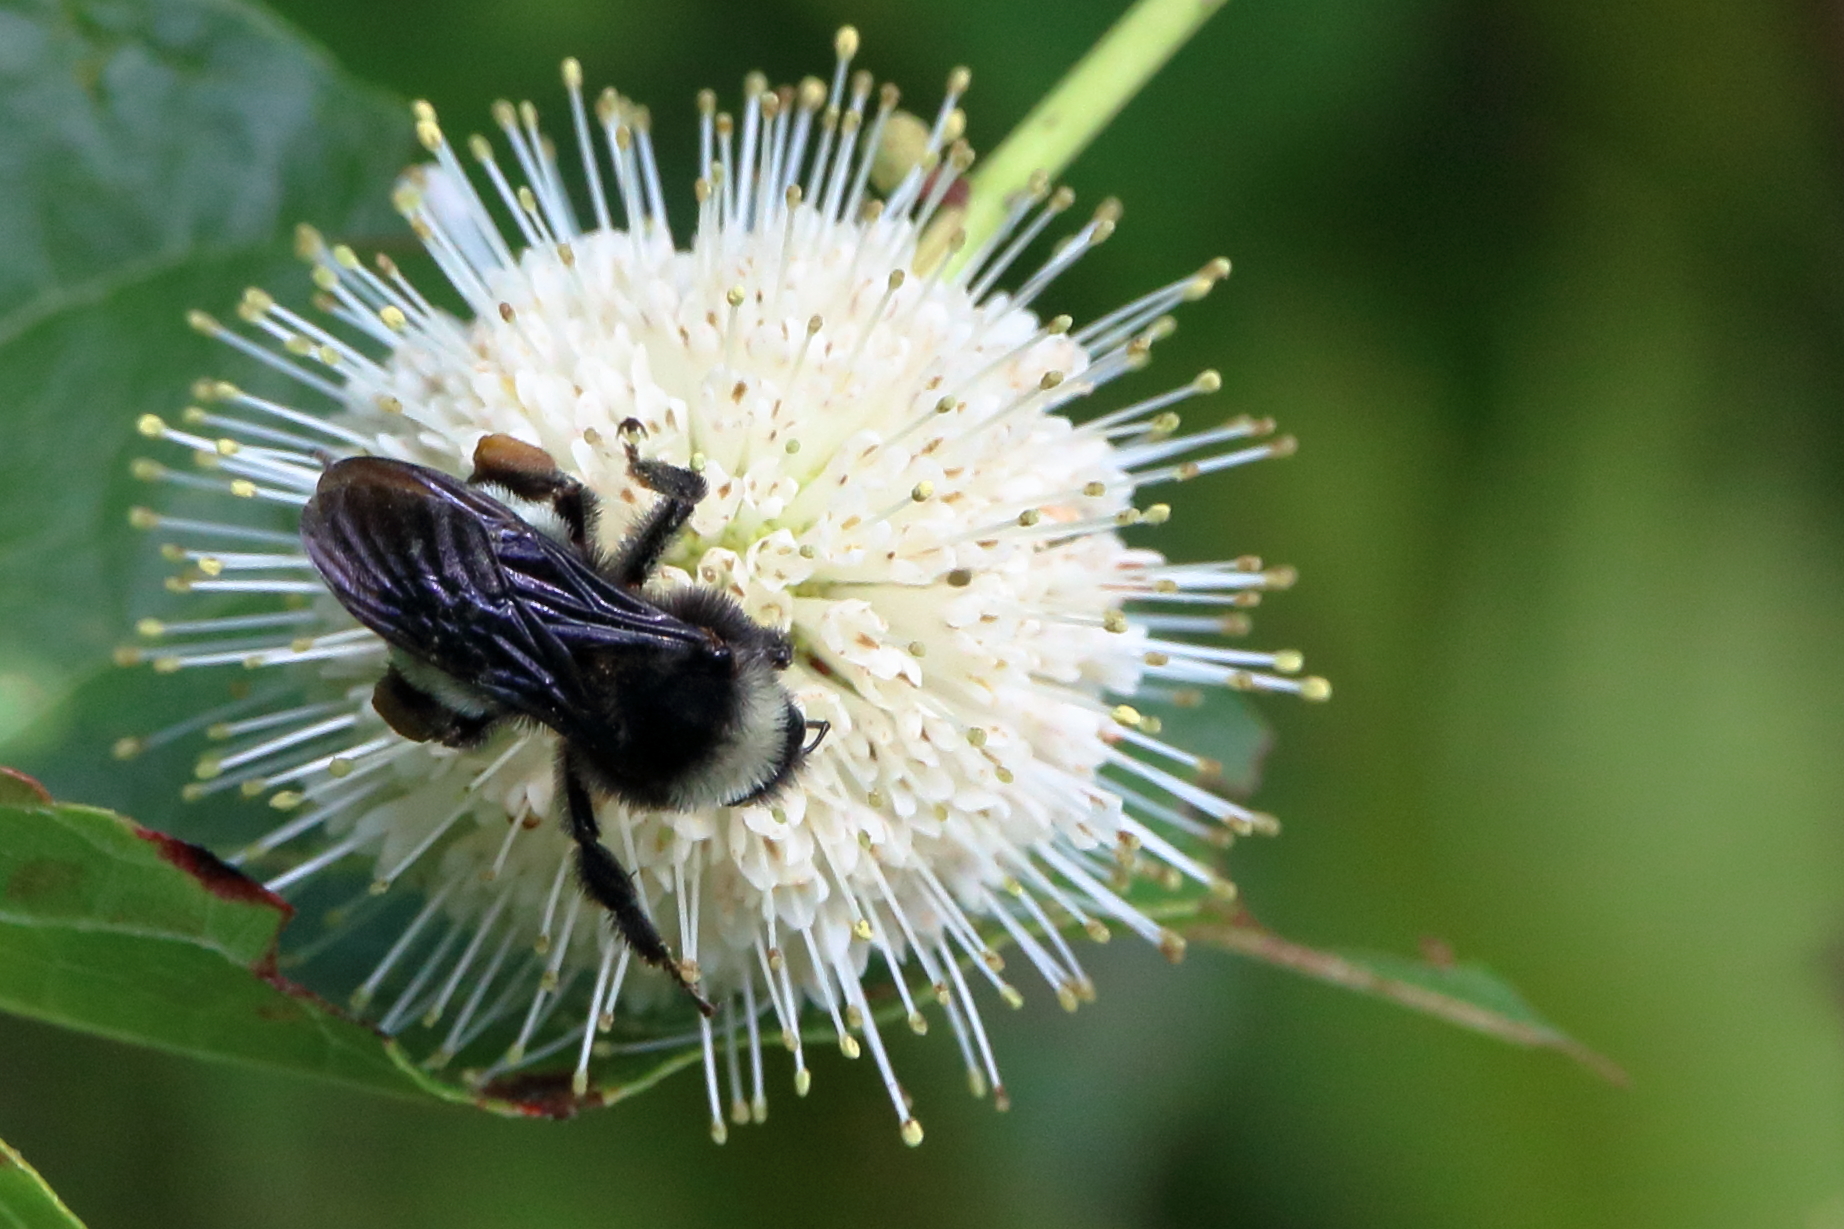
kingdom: Animalia
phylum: Arthropoda
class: Insecta
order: Hymenoptera
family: Apidae
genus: Bombus
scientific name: Bombus pensylvanicus
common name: Bumble bee
